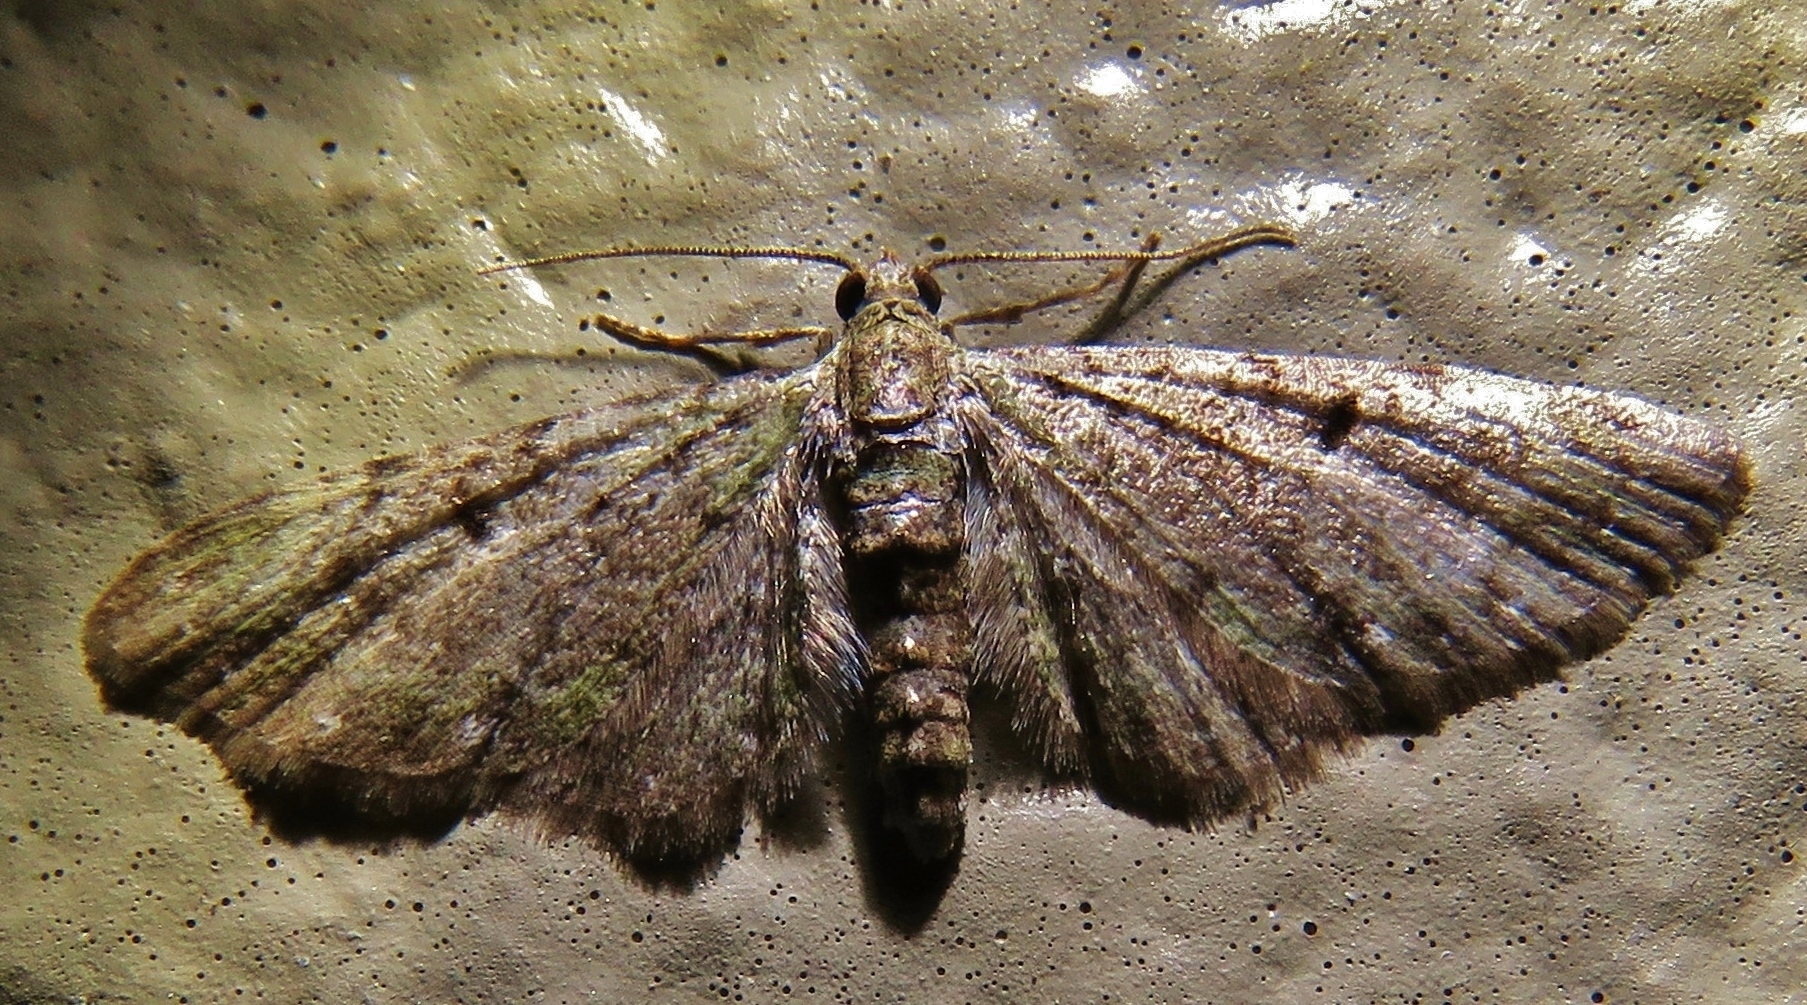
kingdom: Animalia
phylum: Arthropoda
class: Insecta
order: Lepidoptera
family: Geometridae
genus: Eupithecia
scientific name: Eupithecia miserulata
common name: Common eupithecia
